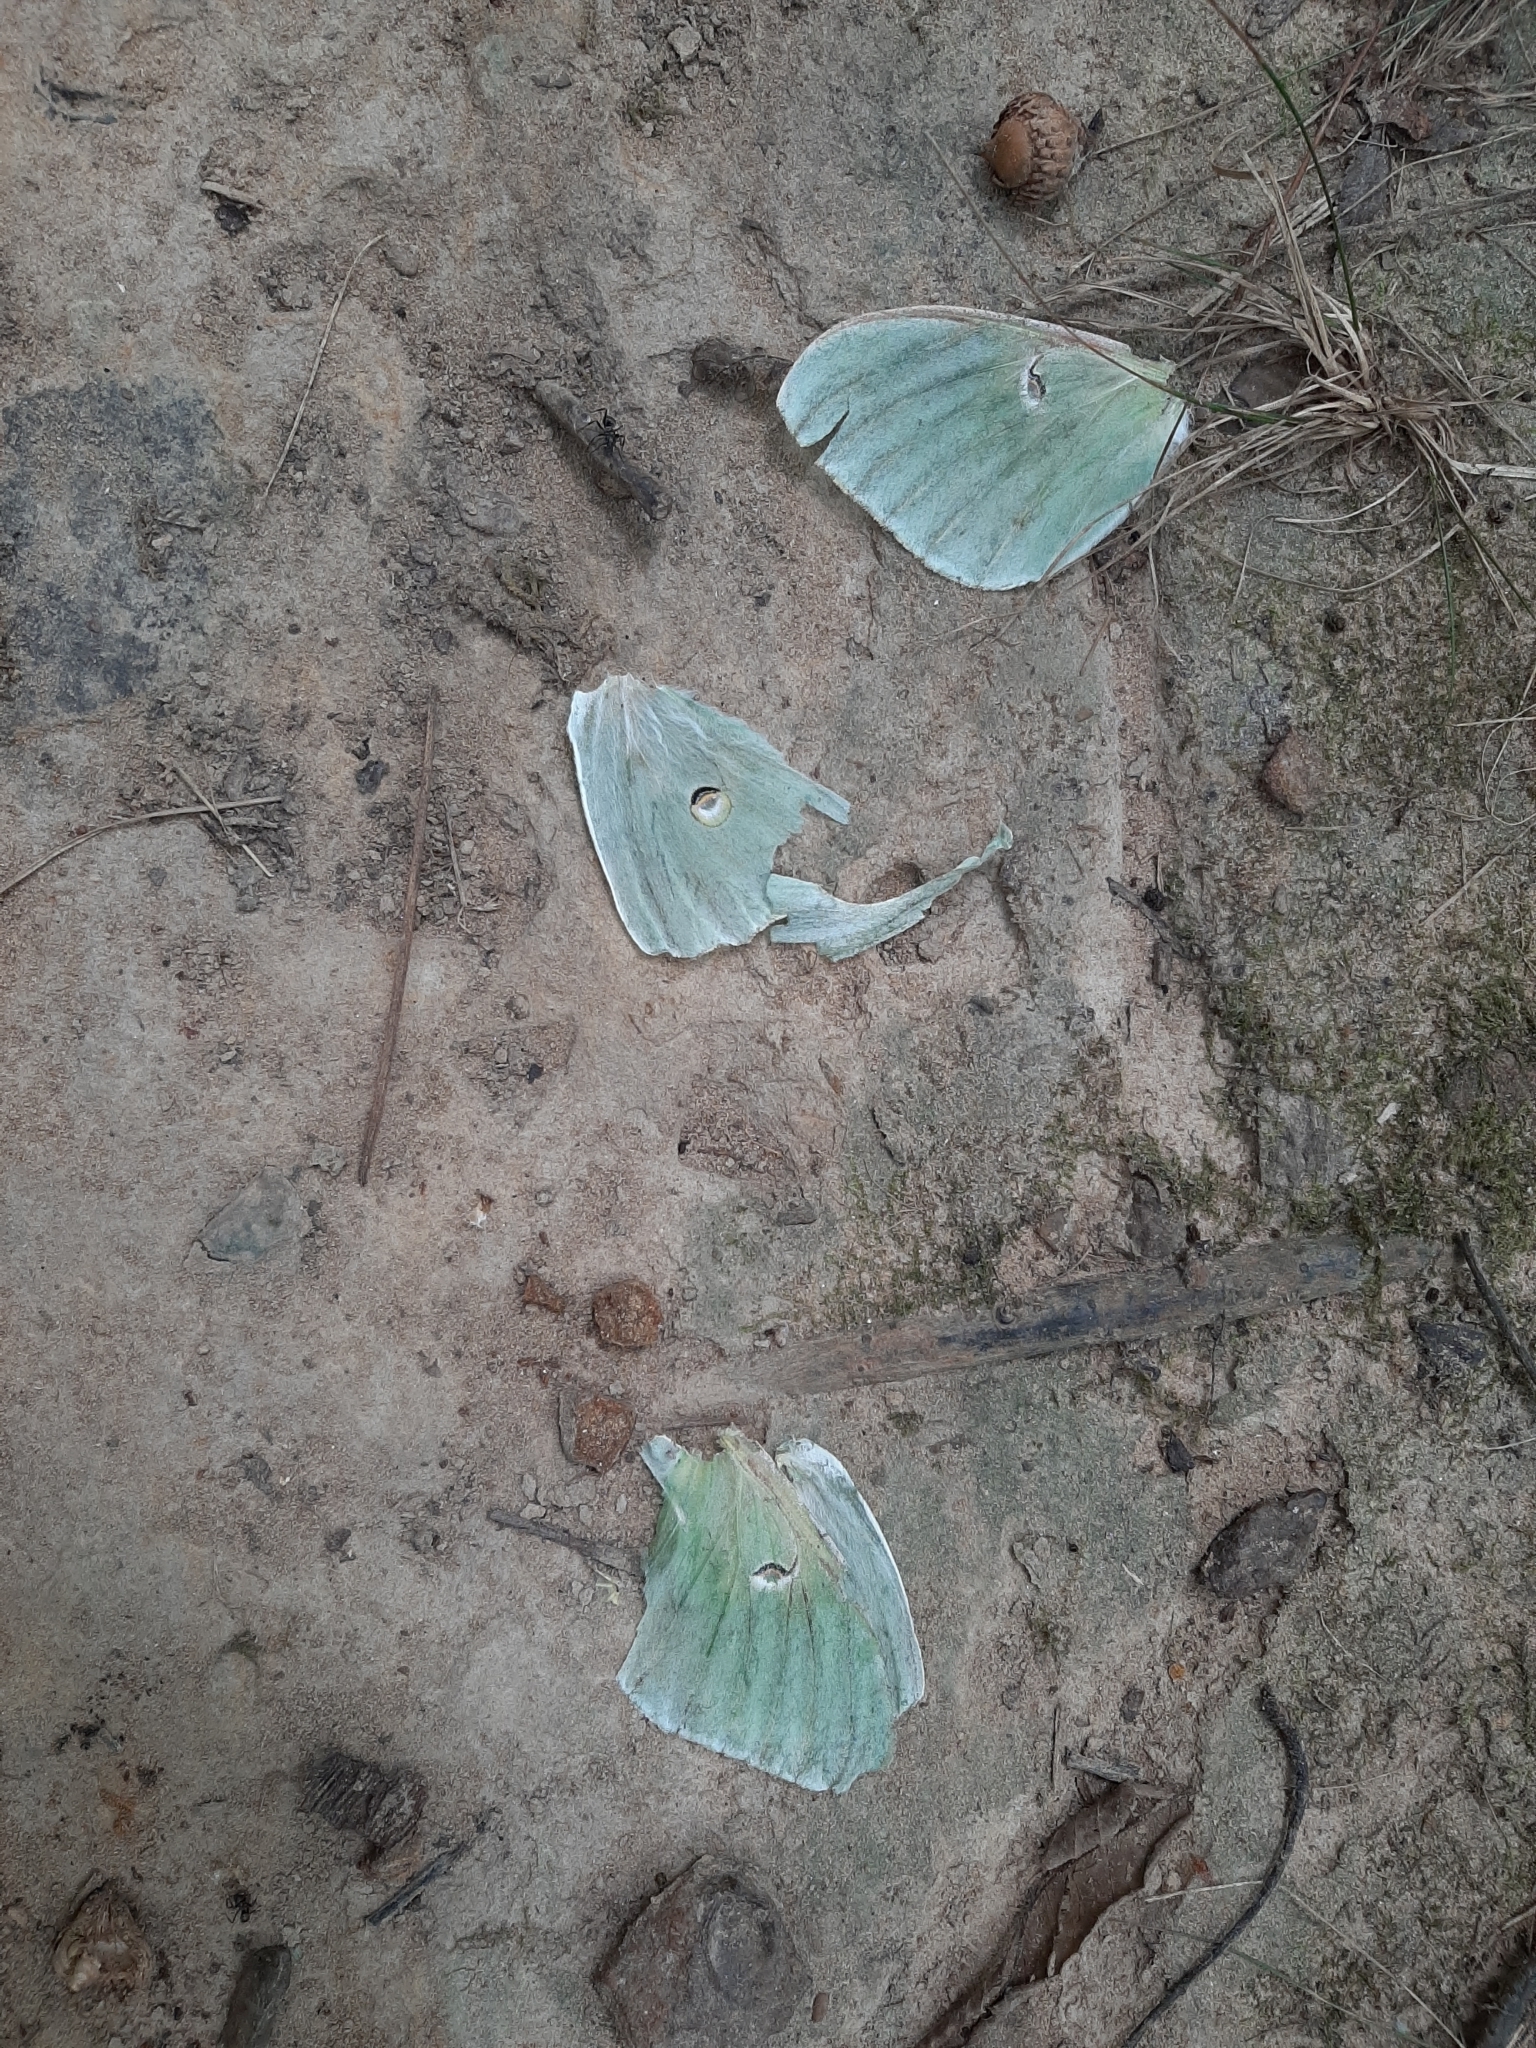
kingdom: Animalia
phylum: Arthropoda
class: Insecta
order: Lepidoptera
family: Saturniidae
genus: Actias
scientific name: Actias luna
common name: Luna moth
